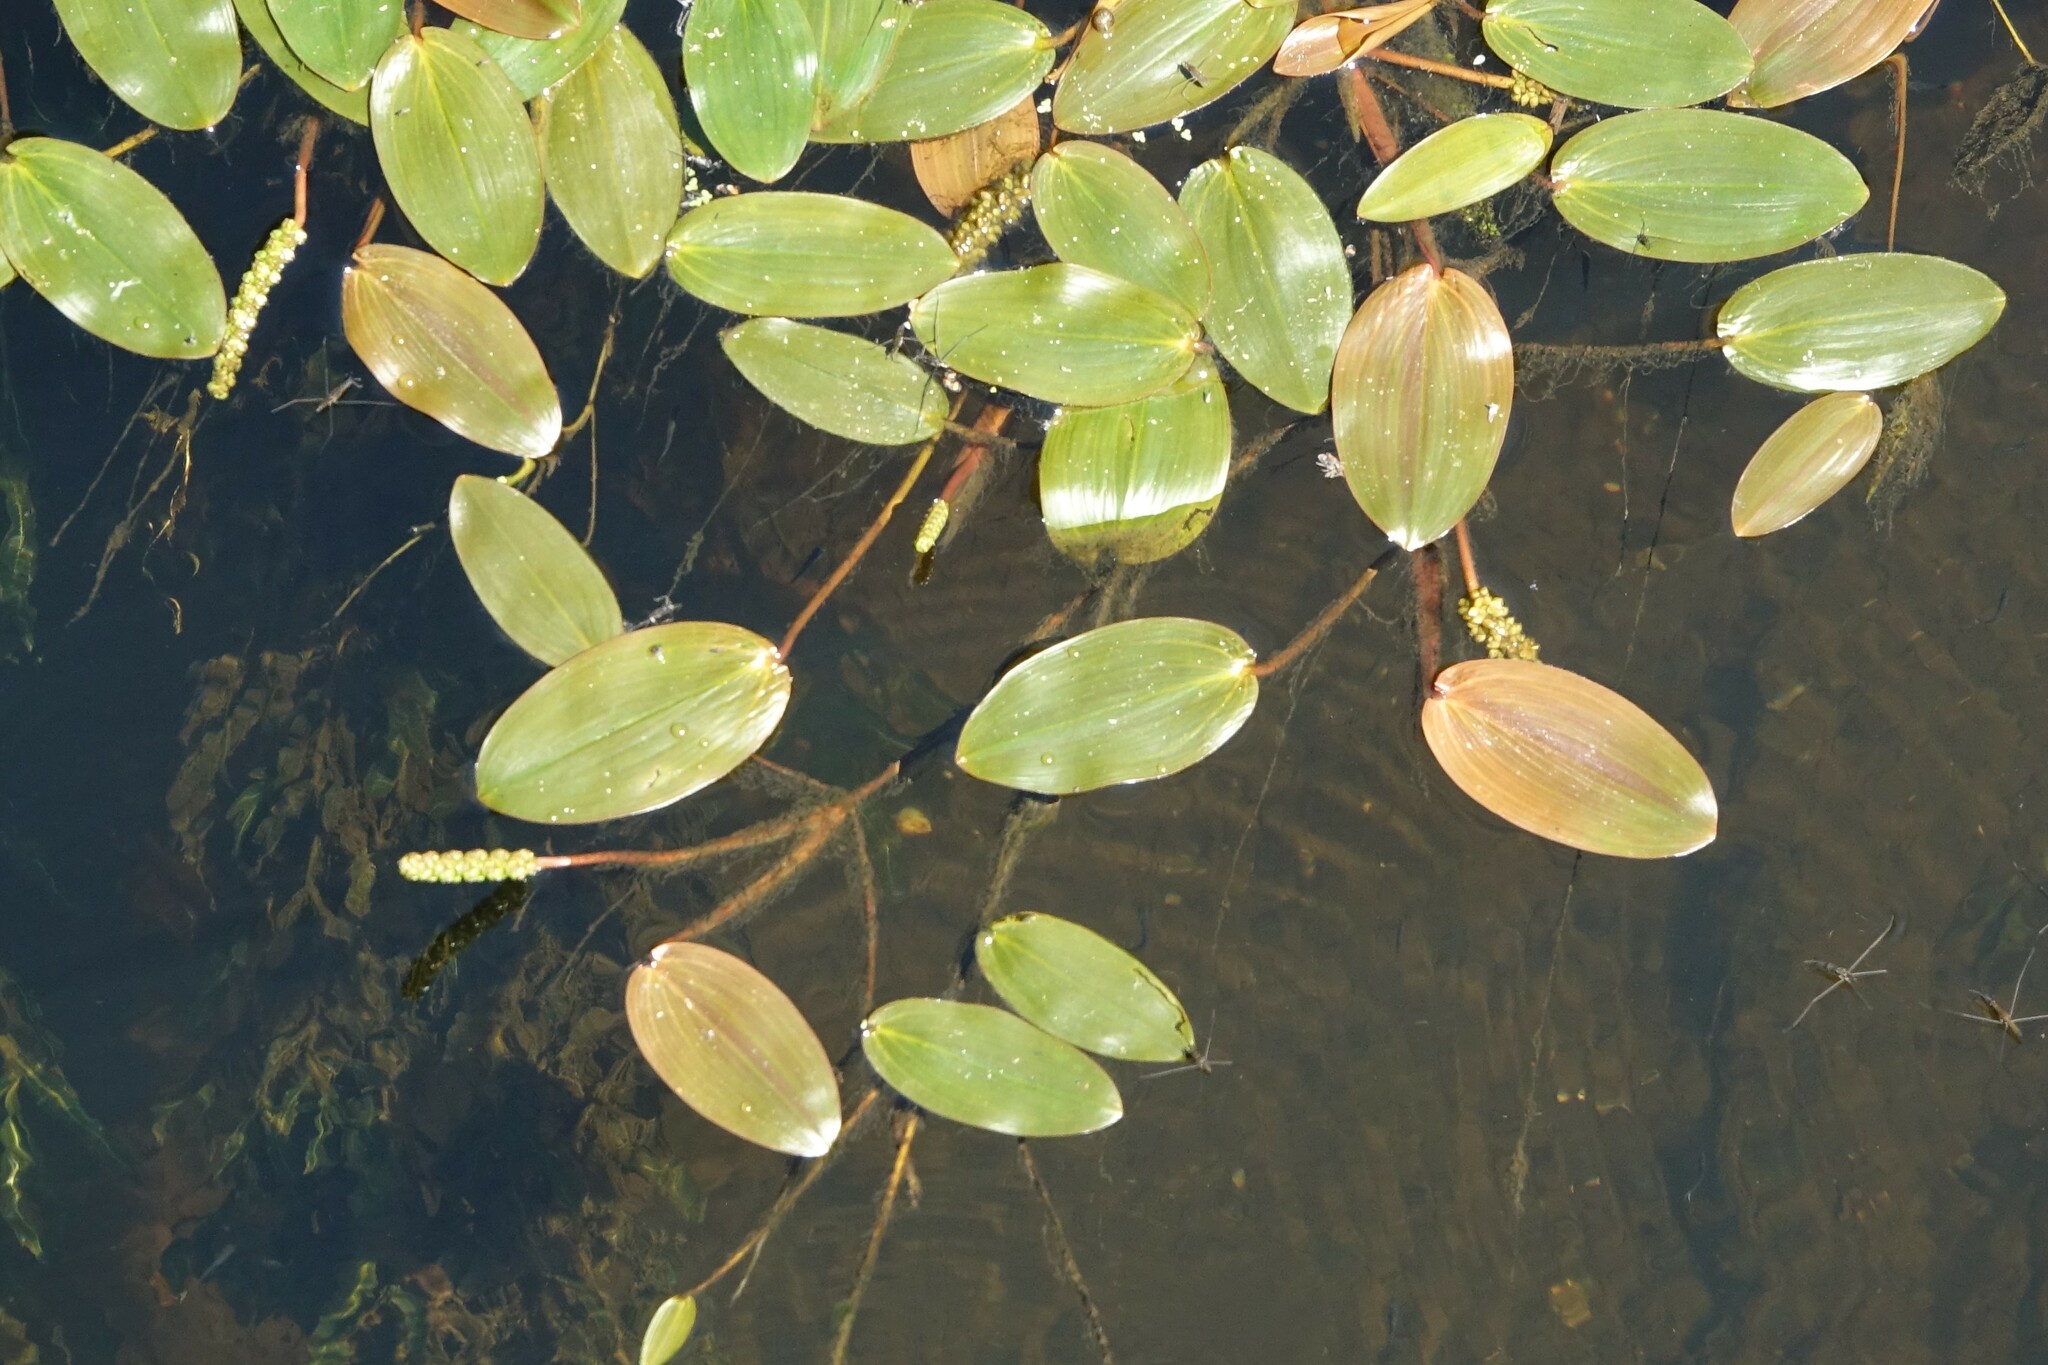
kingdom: Plantae
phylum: Tracheophyta
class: Liliopsida
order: Alismatales
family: Potamogetonaceae
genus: Potamogeton
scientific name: Potamogeton natans
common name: Broad-leaved pondweed
